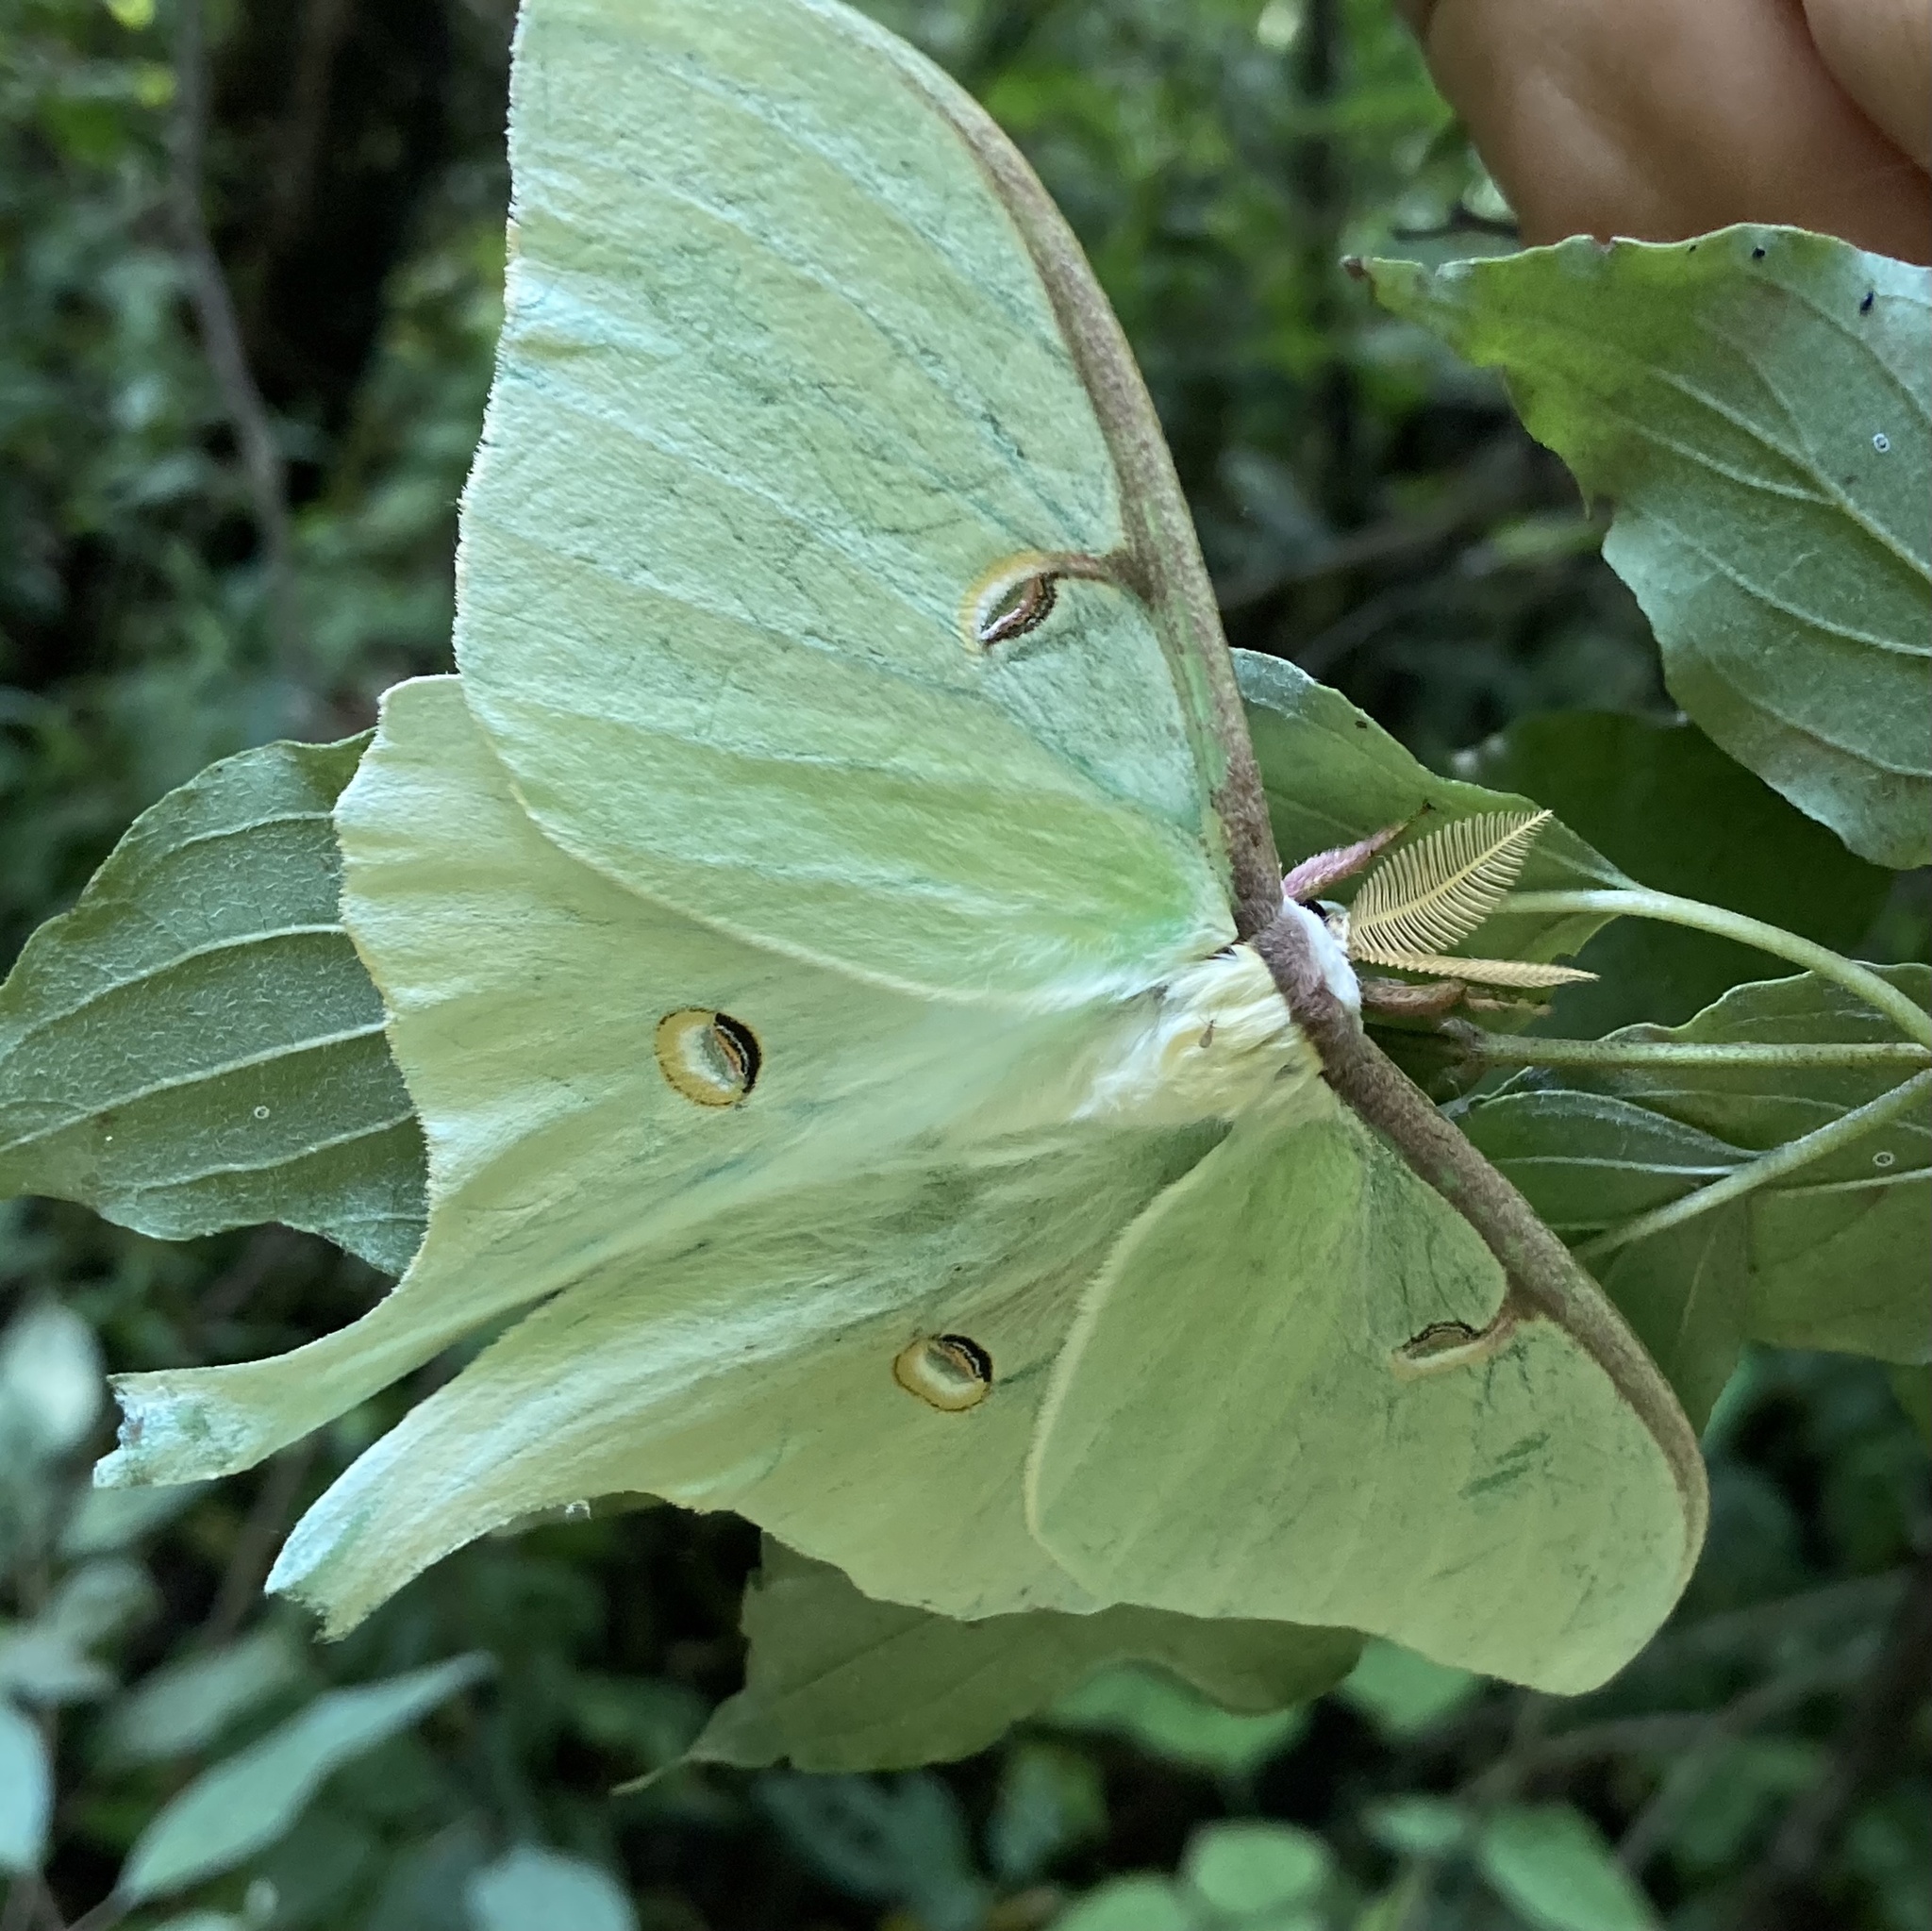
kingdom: Animalia
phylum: Arthropoda
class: Insecta
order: Lepidoptera
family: Saturniidae
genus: Actias
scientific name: Actias luna
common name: Luna moth
